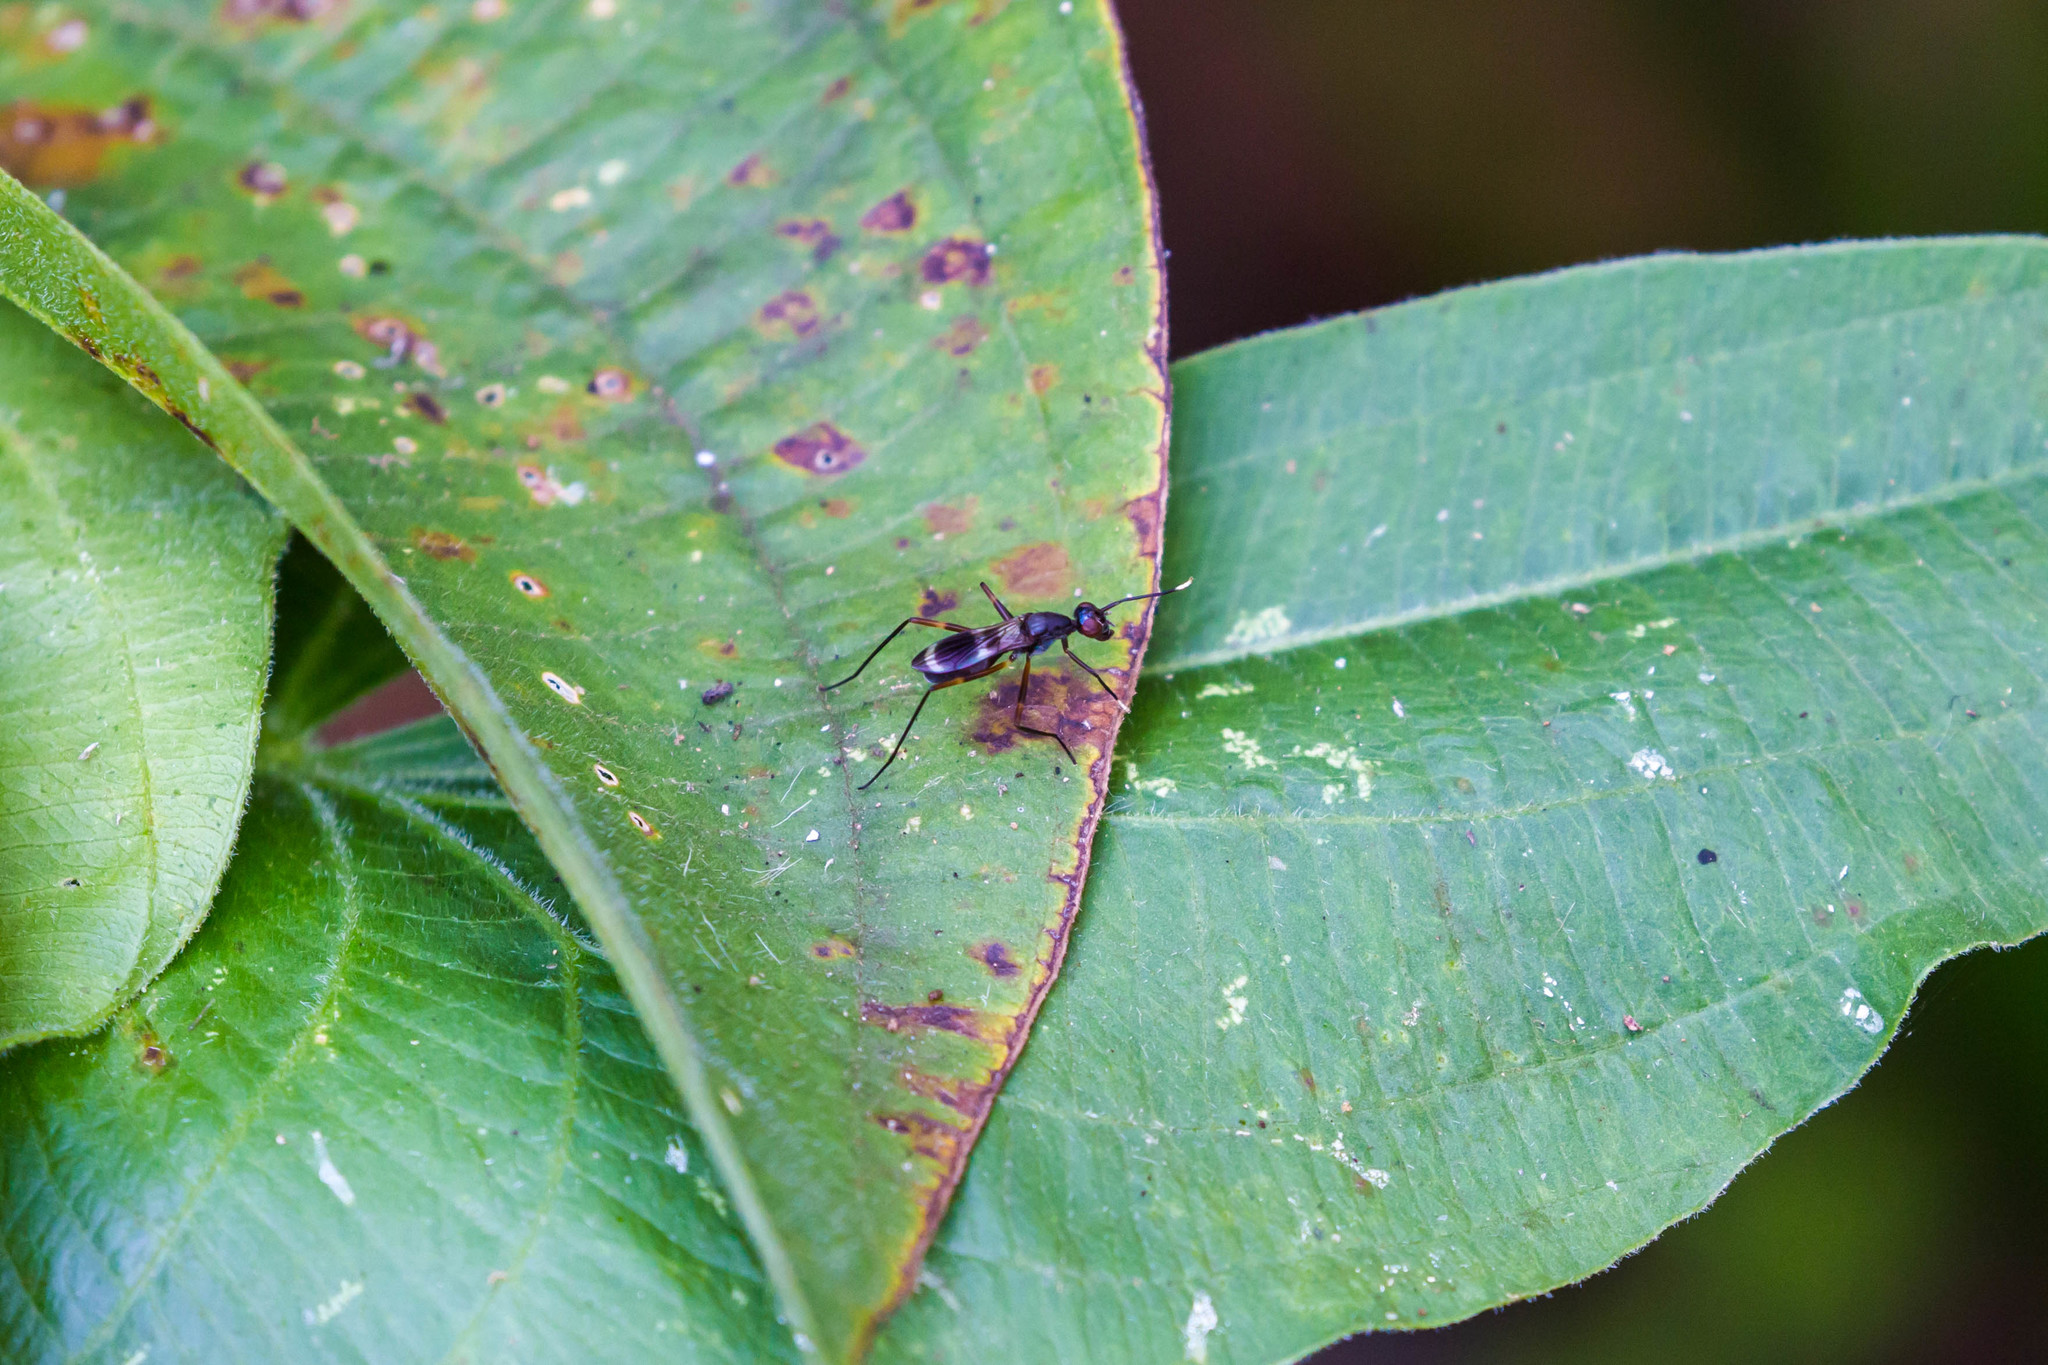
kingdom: Animalia
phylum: Arthropoda
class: Insecta
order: Diptera
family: Micropezidae
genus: Taeniaptera
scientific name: Taeniaptera trivittata
